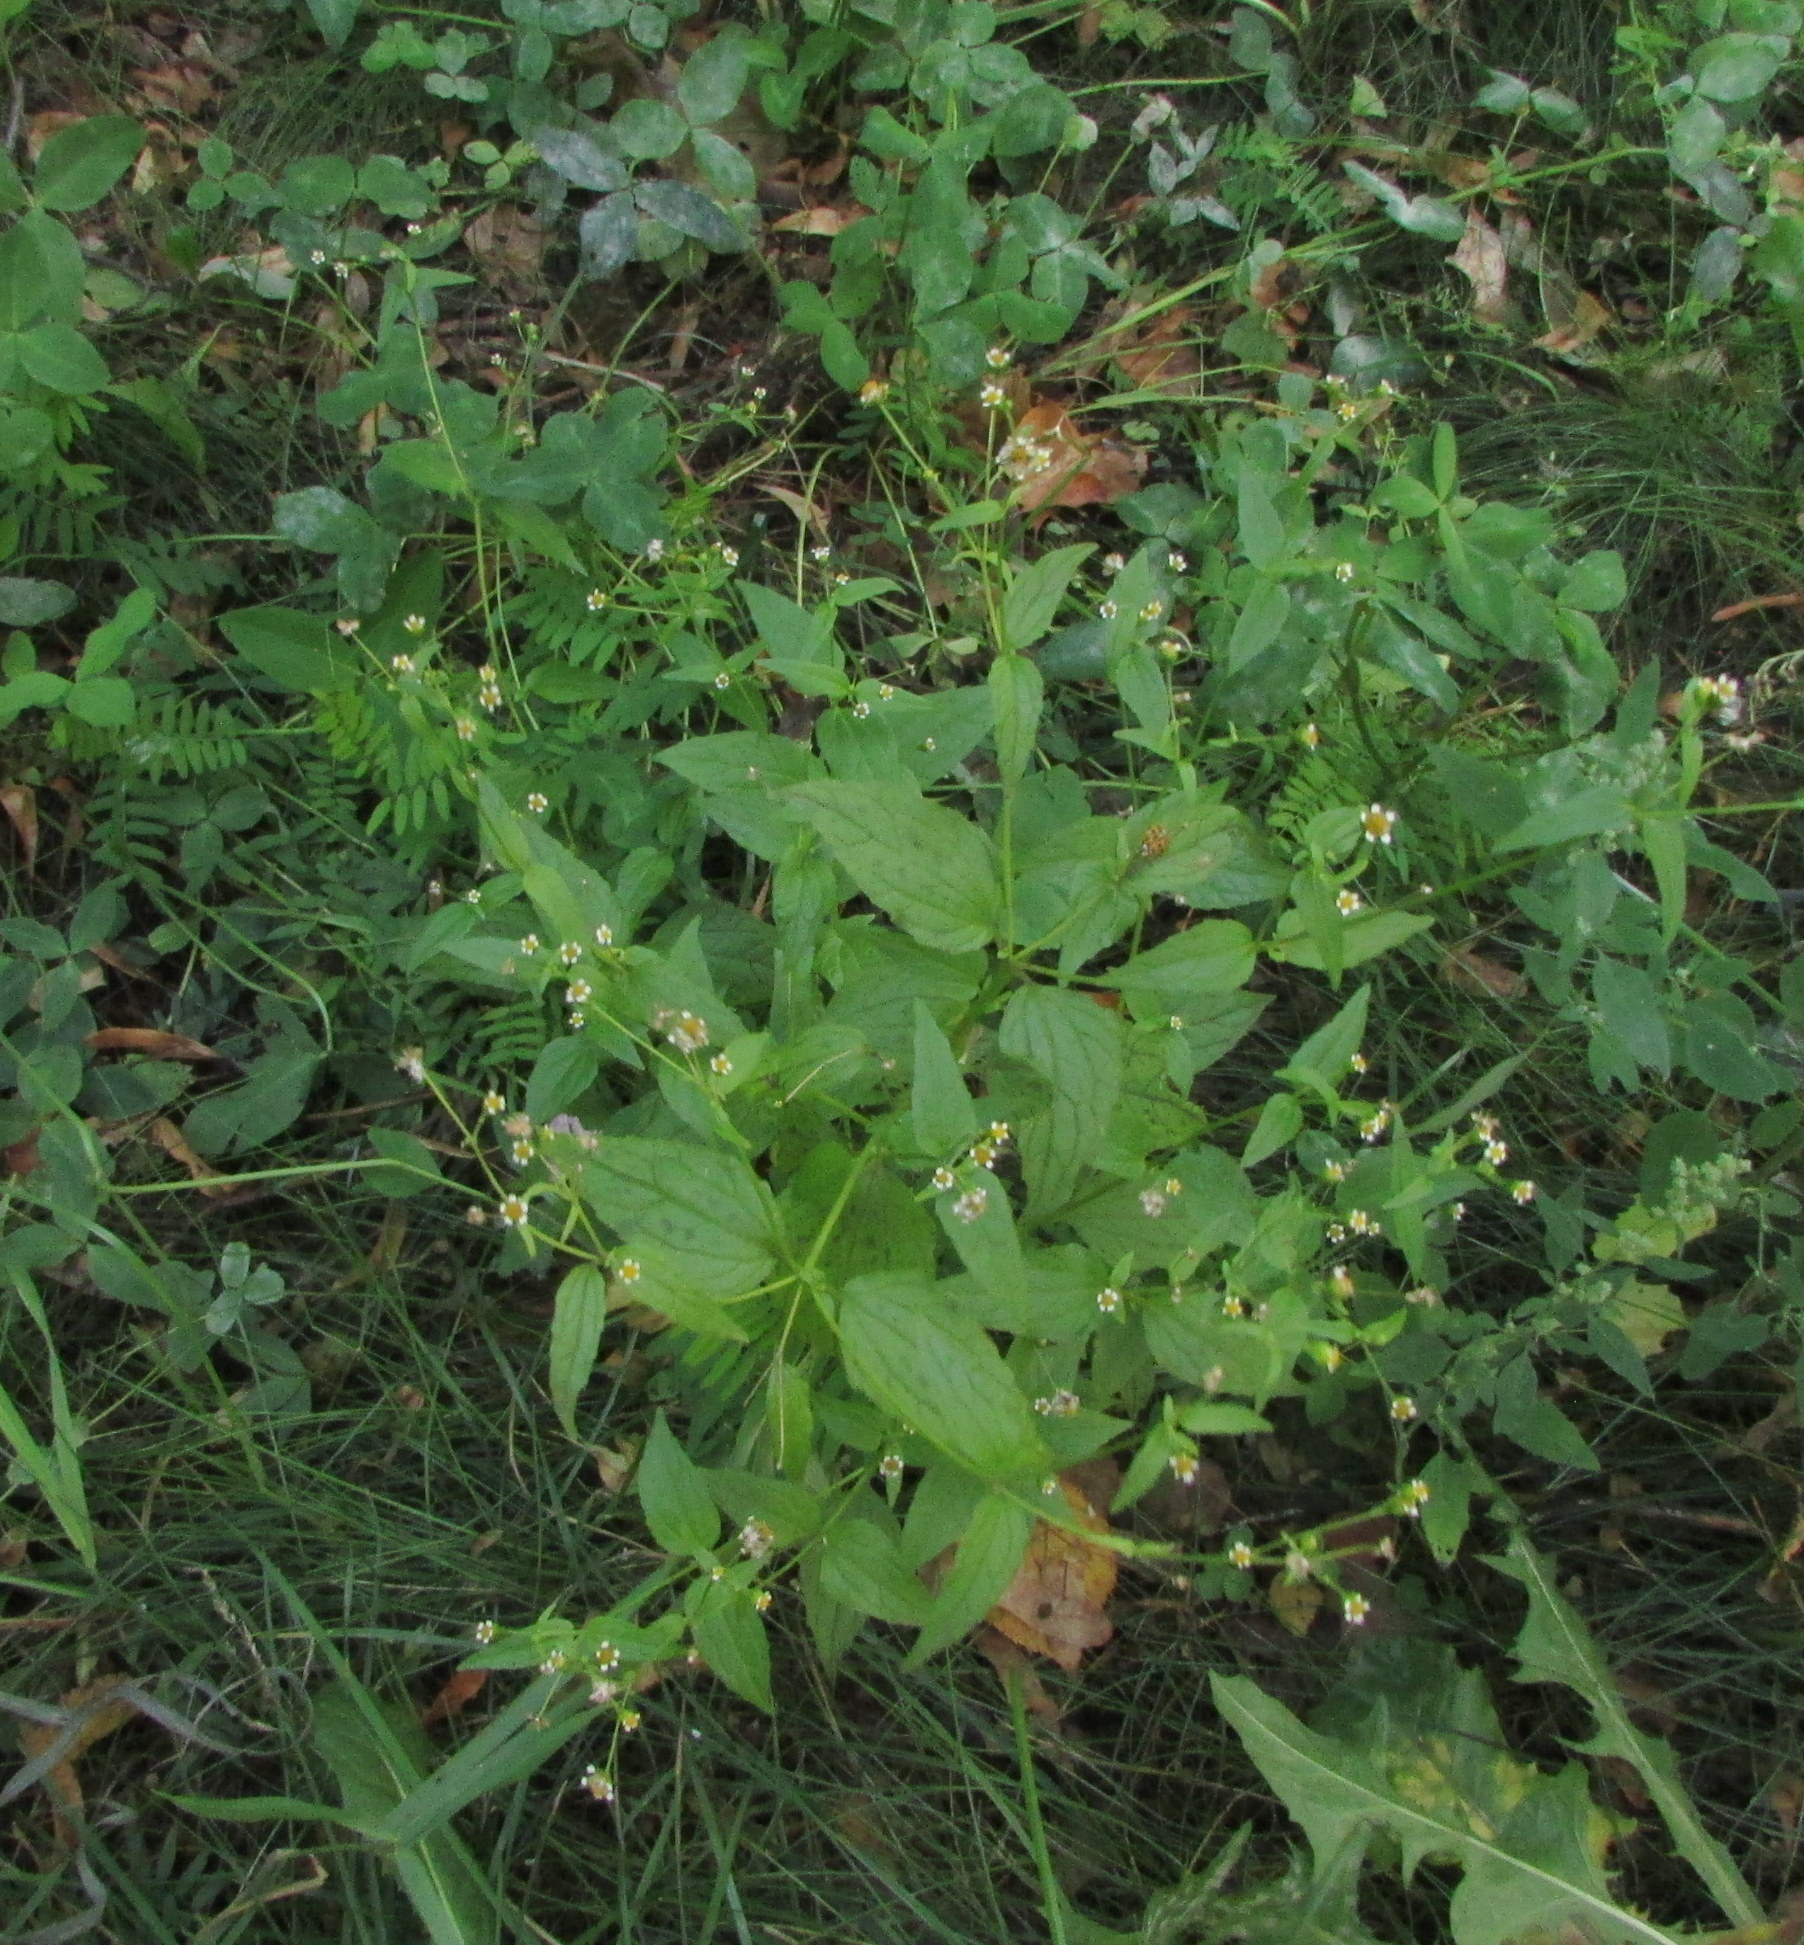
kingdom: Plantae
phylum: Tracheophyta
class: Magnoliopsida
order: Asterales
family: Asteraceae
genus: Galinsoga
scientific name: Galinsoga parviflora
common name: Gallant soldier
